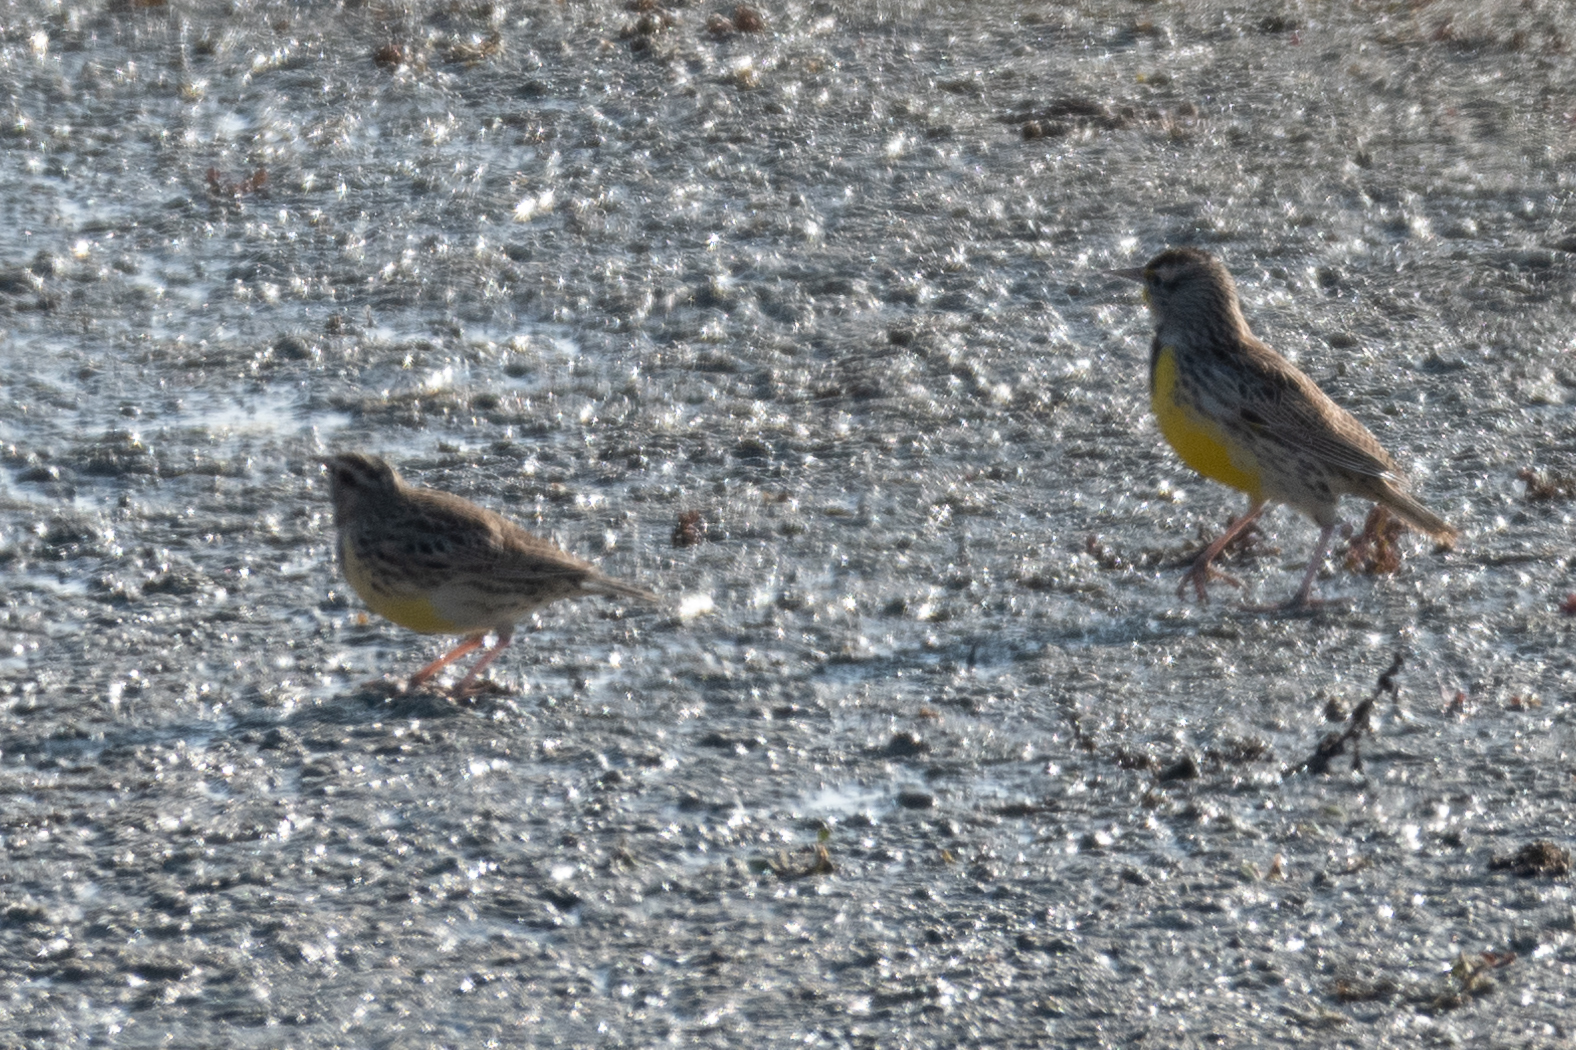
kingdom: Animalia
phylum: Chordata
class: Aves
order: Passeriformes
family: Icteridae
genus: Sturnella
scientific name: Sturnella neglecta
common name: Western meadowlark
